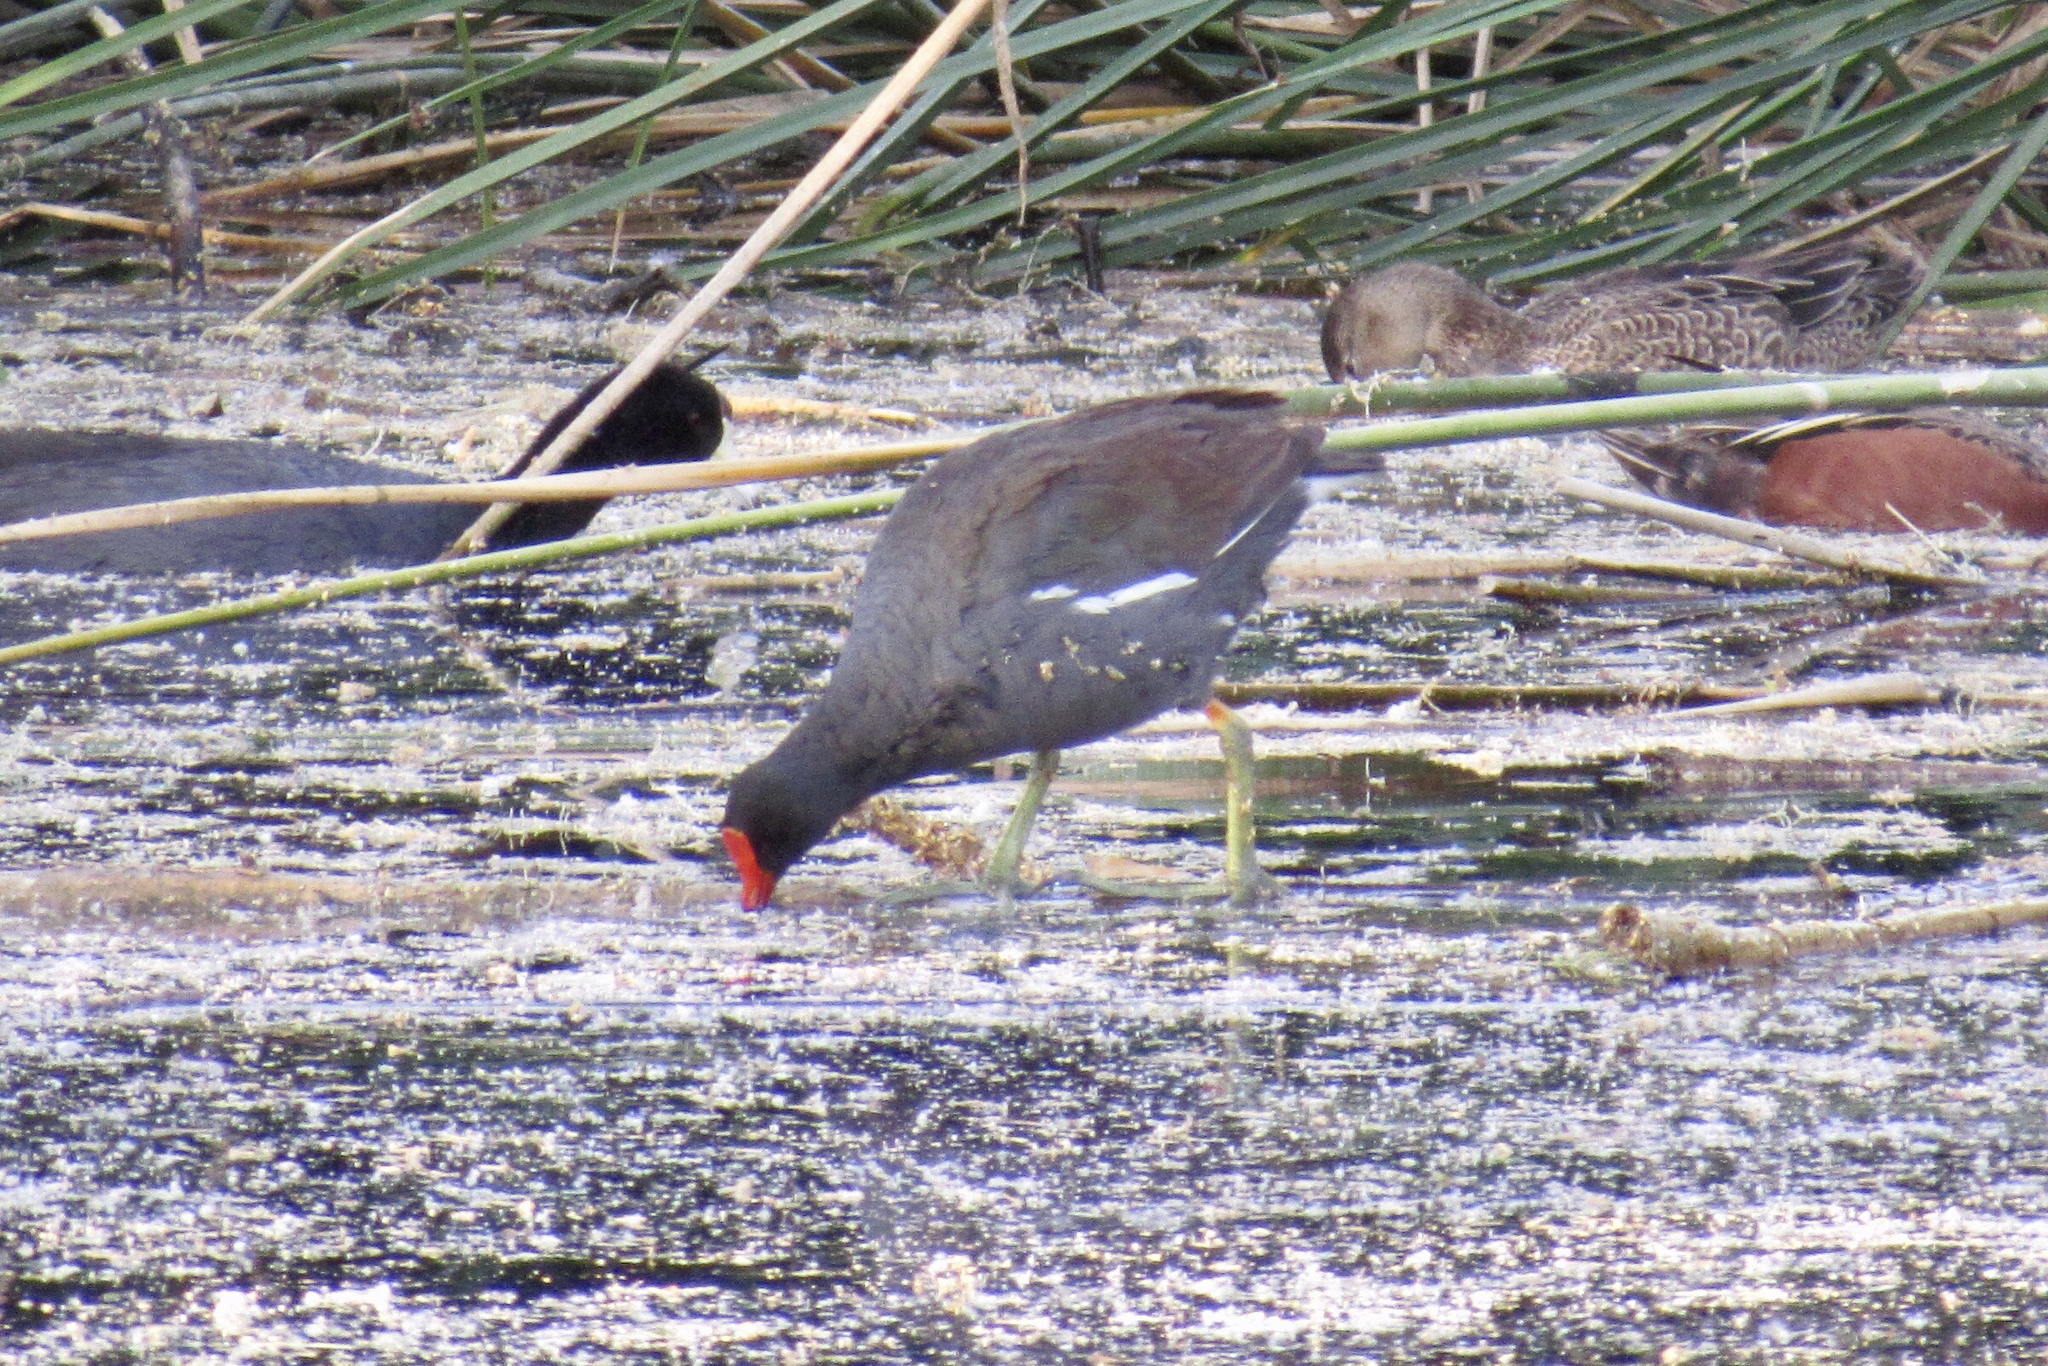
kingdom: Animalia
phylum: Chordata
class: Aves
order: Gruiformes
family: Rallidae
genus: Gallinula
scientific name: Gallinula chloropus
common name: Common moorhen
